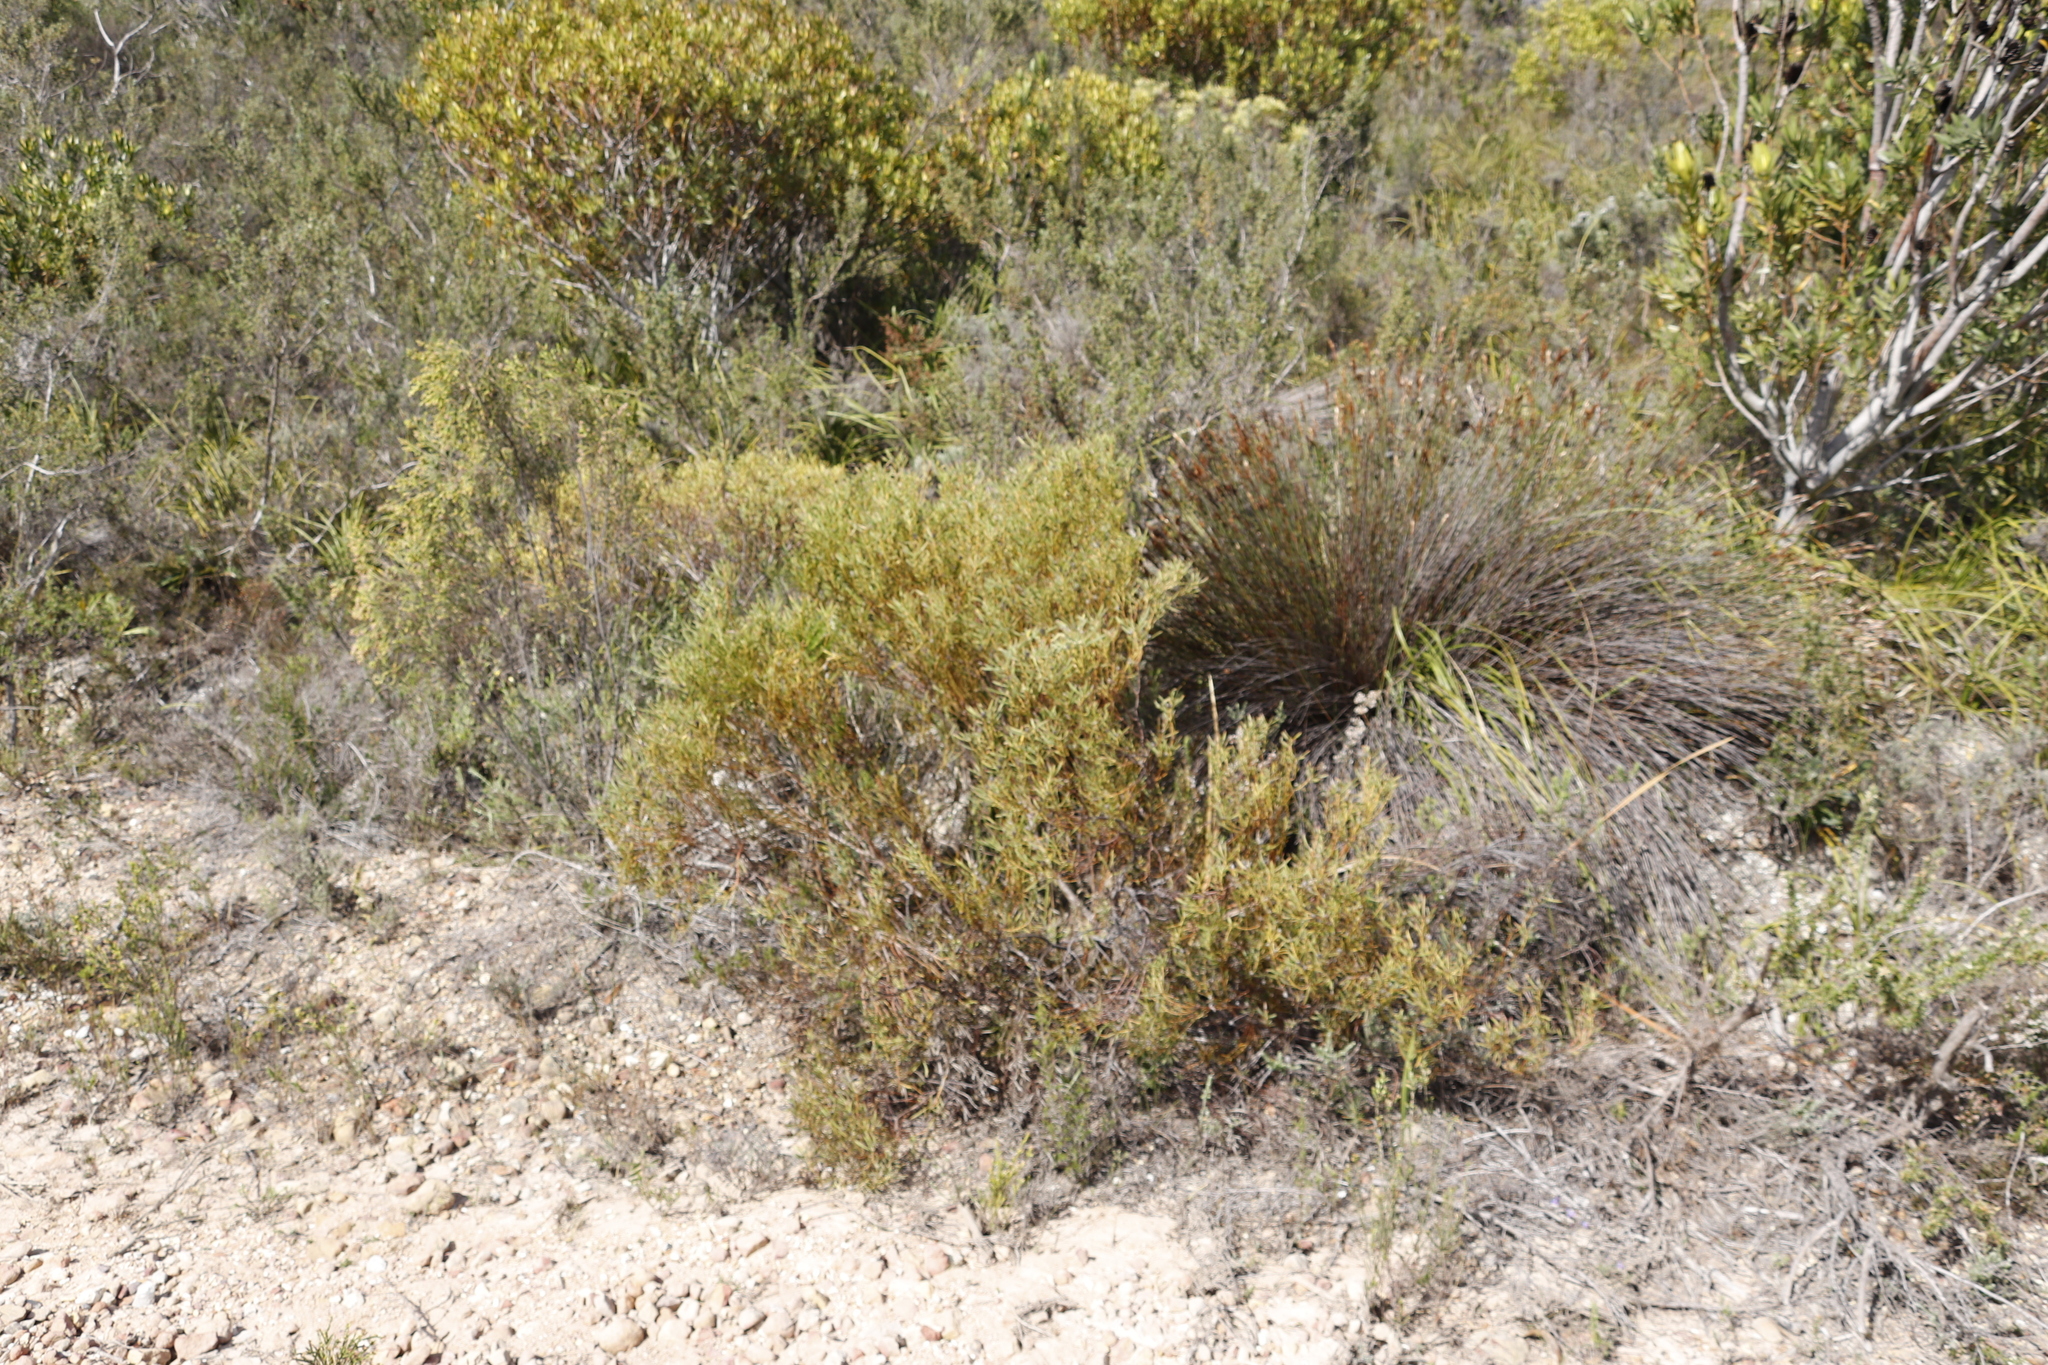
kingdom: Plantae
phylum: Tracheophyta
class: Magnoliopsida
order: Proteales
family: Proteaceae
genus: Leucadendron
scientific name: Leucadendron salignum
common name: Common sunshine conebush
